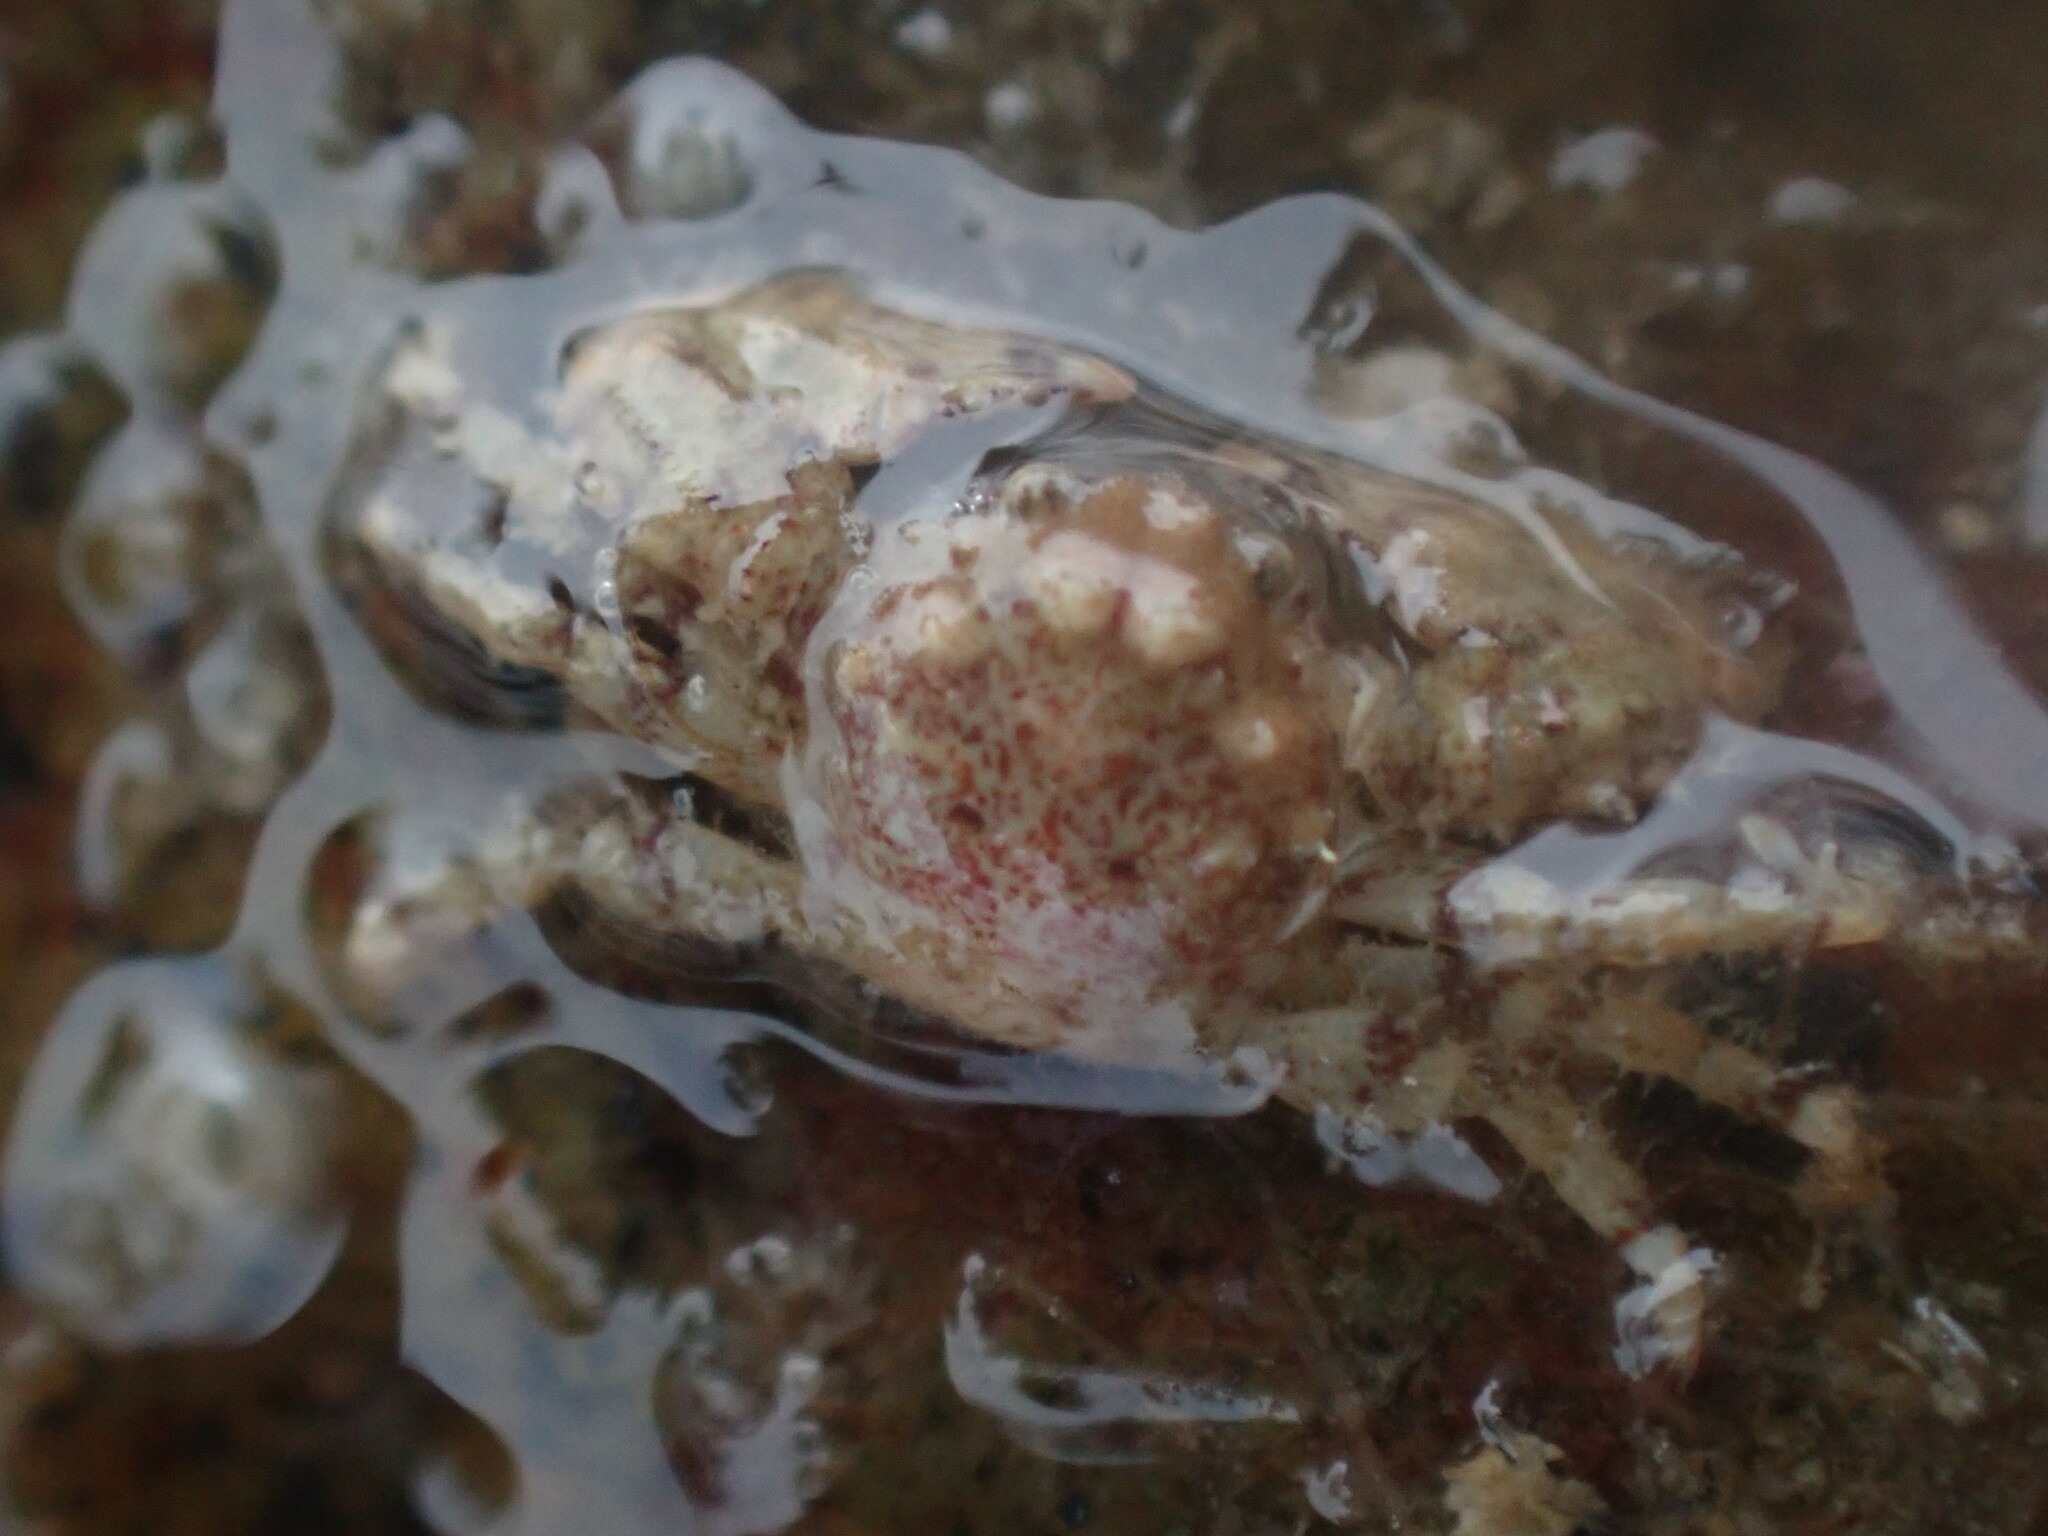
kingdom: Animalia
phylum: Arthropoda
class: Malacostraca
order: Decapoda
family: Porcellanidae
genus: Petrolisthes
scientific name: Petrolisthes novaezelandiae
